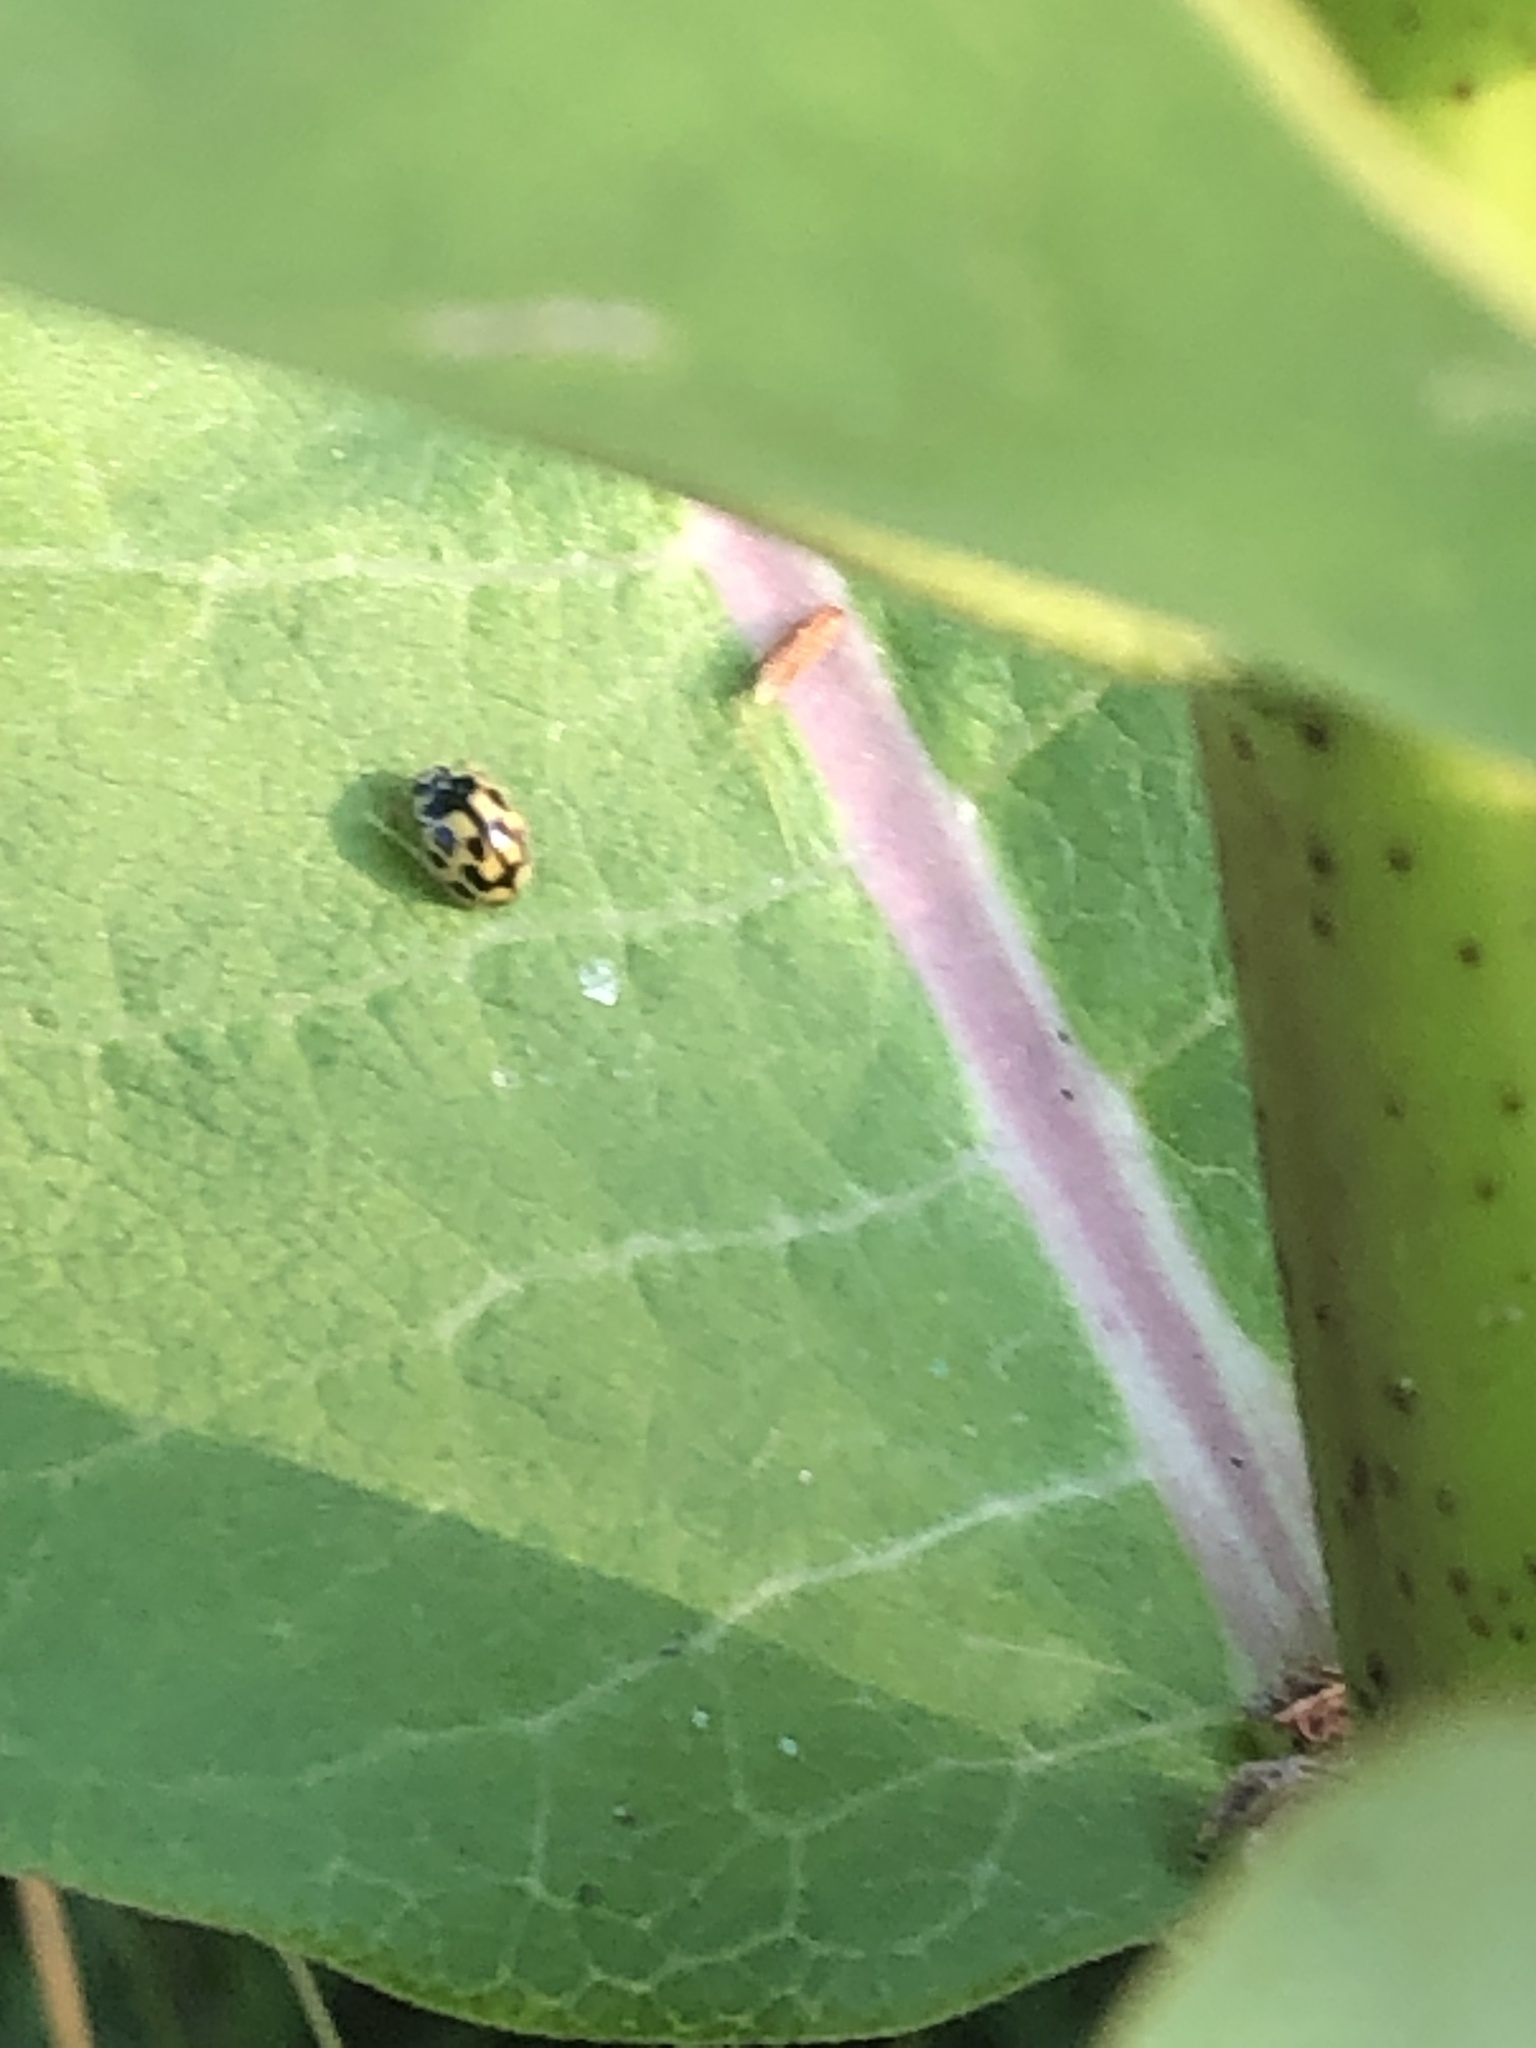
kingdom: Animalia
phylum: Arthropoda
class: Insecta
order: Coleoptera
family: Coccinellidae
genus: Propylaea
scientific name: Propylaea quatuordecimpunctata
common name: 14-spotted ladybird beetle
